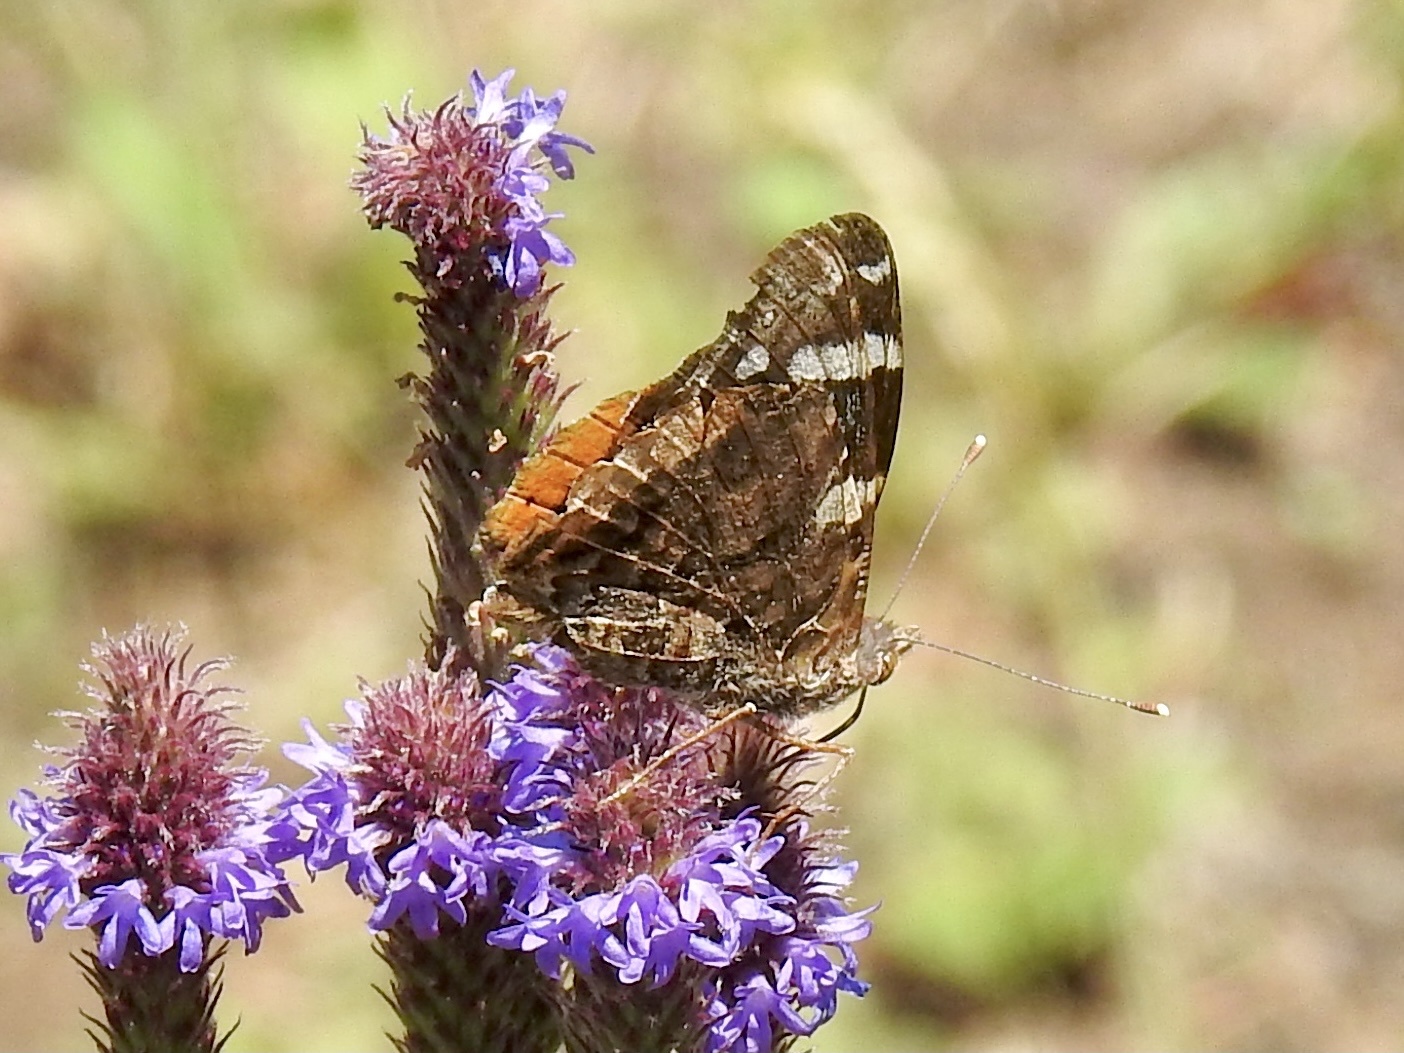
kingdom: Animalia
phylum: Arthropoda
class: Insecta
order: Lepidoptera
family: Nymphalidae
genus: Vanessa
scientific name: Vanessa atalanta
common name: Red admiral
